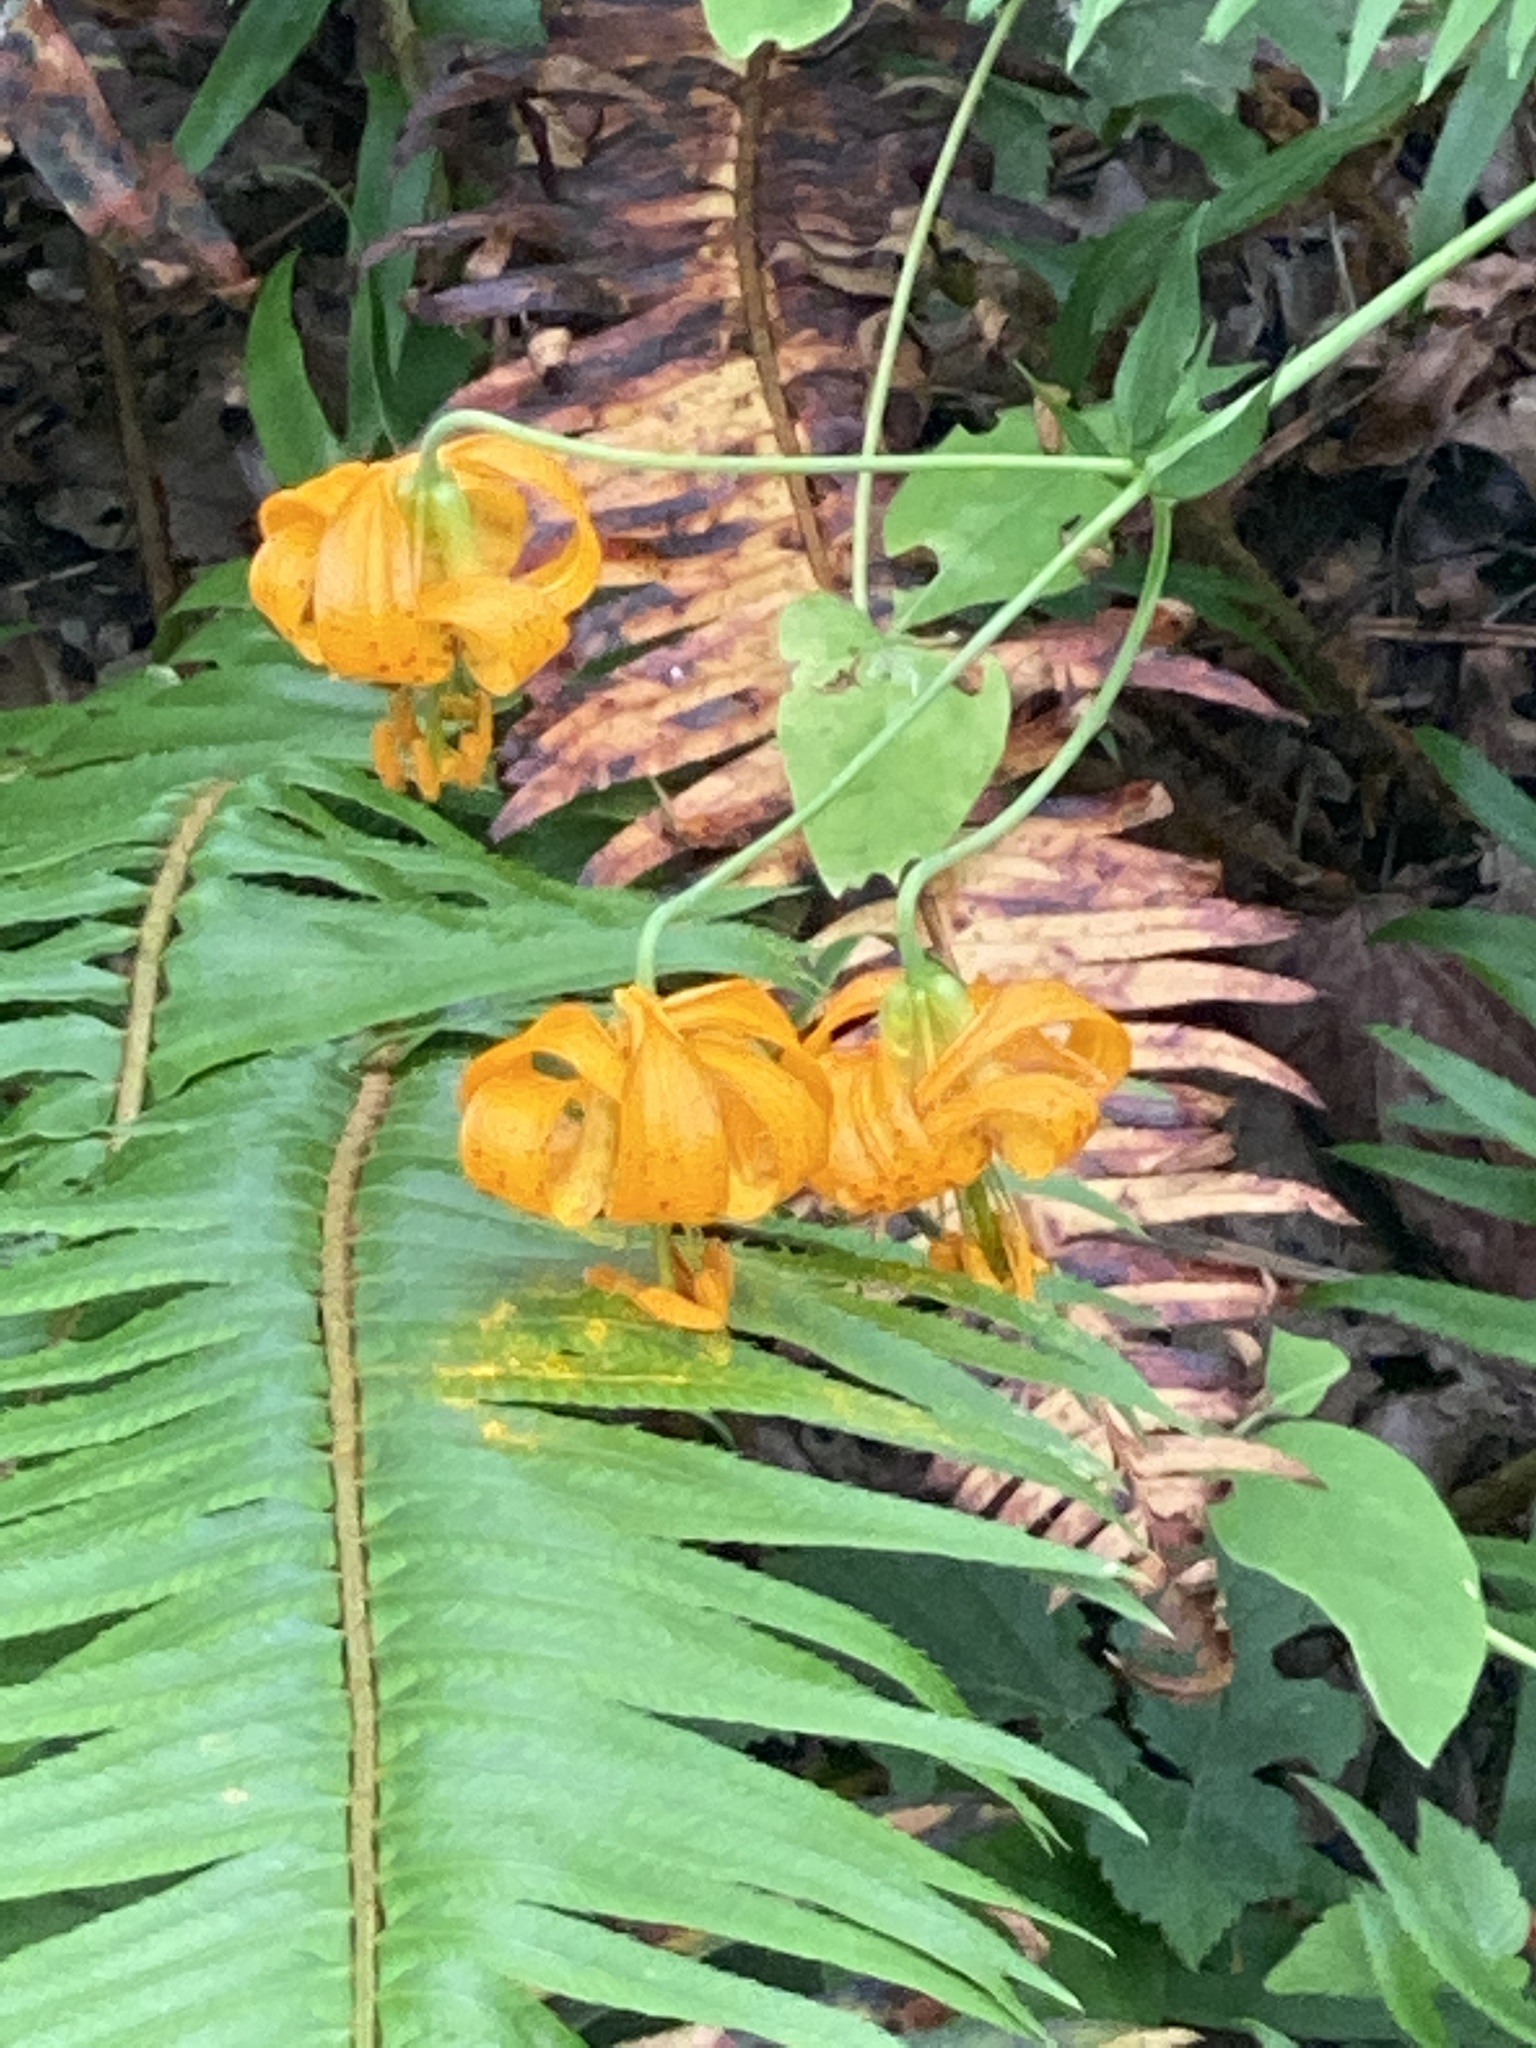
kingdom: Plantae
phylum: Tracheophyta
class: Liliopsida
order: Liliales
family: Liliaceae
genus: Lilium
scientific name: Lilium columbianum
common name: Columbia lily
